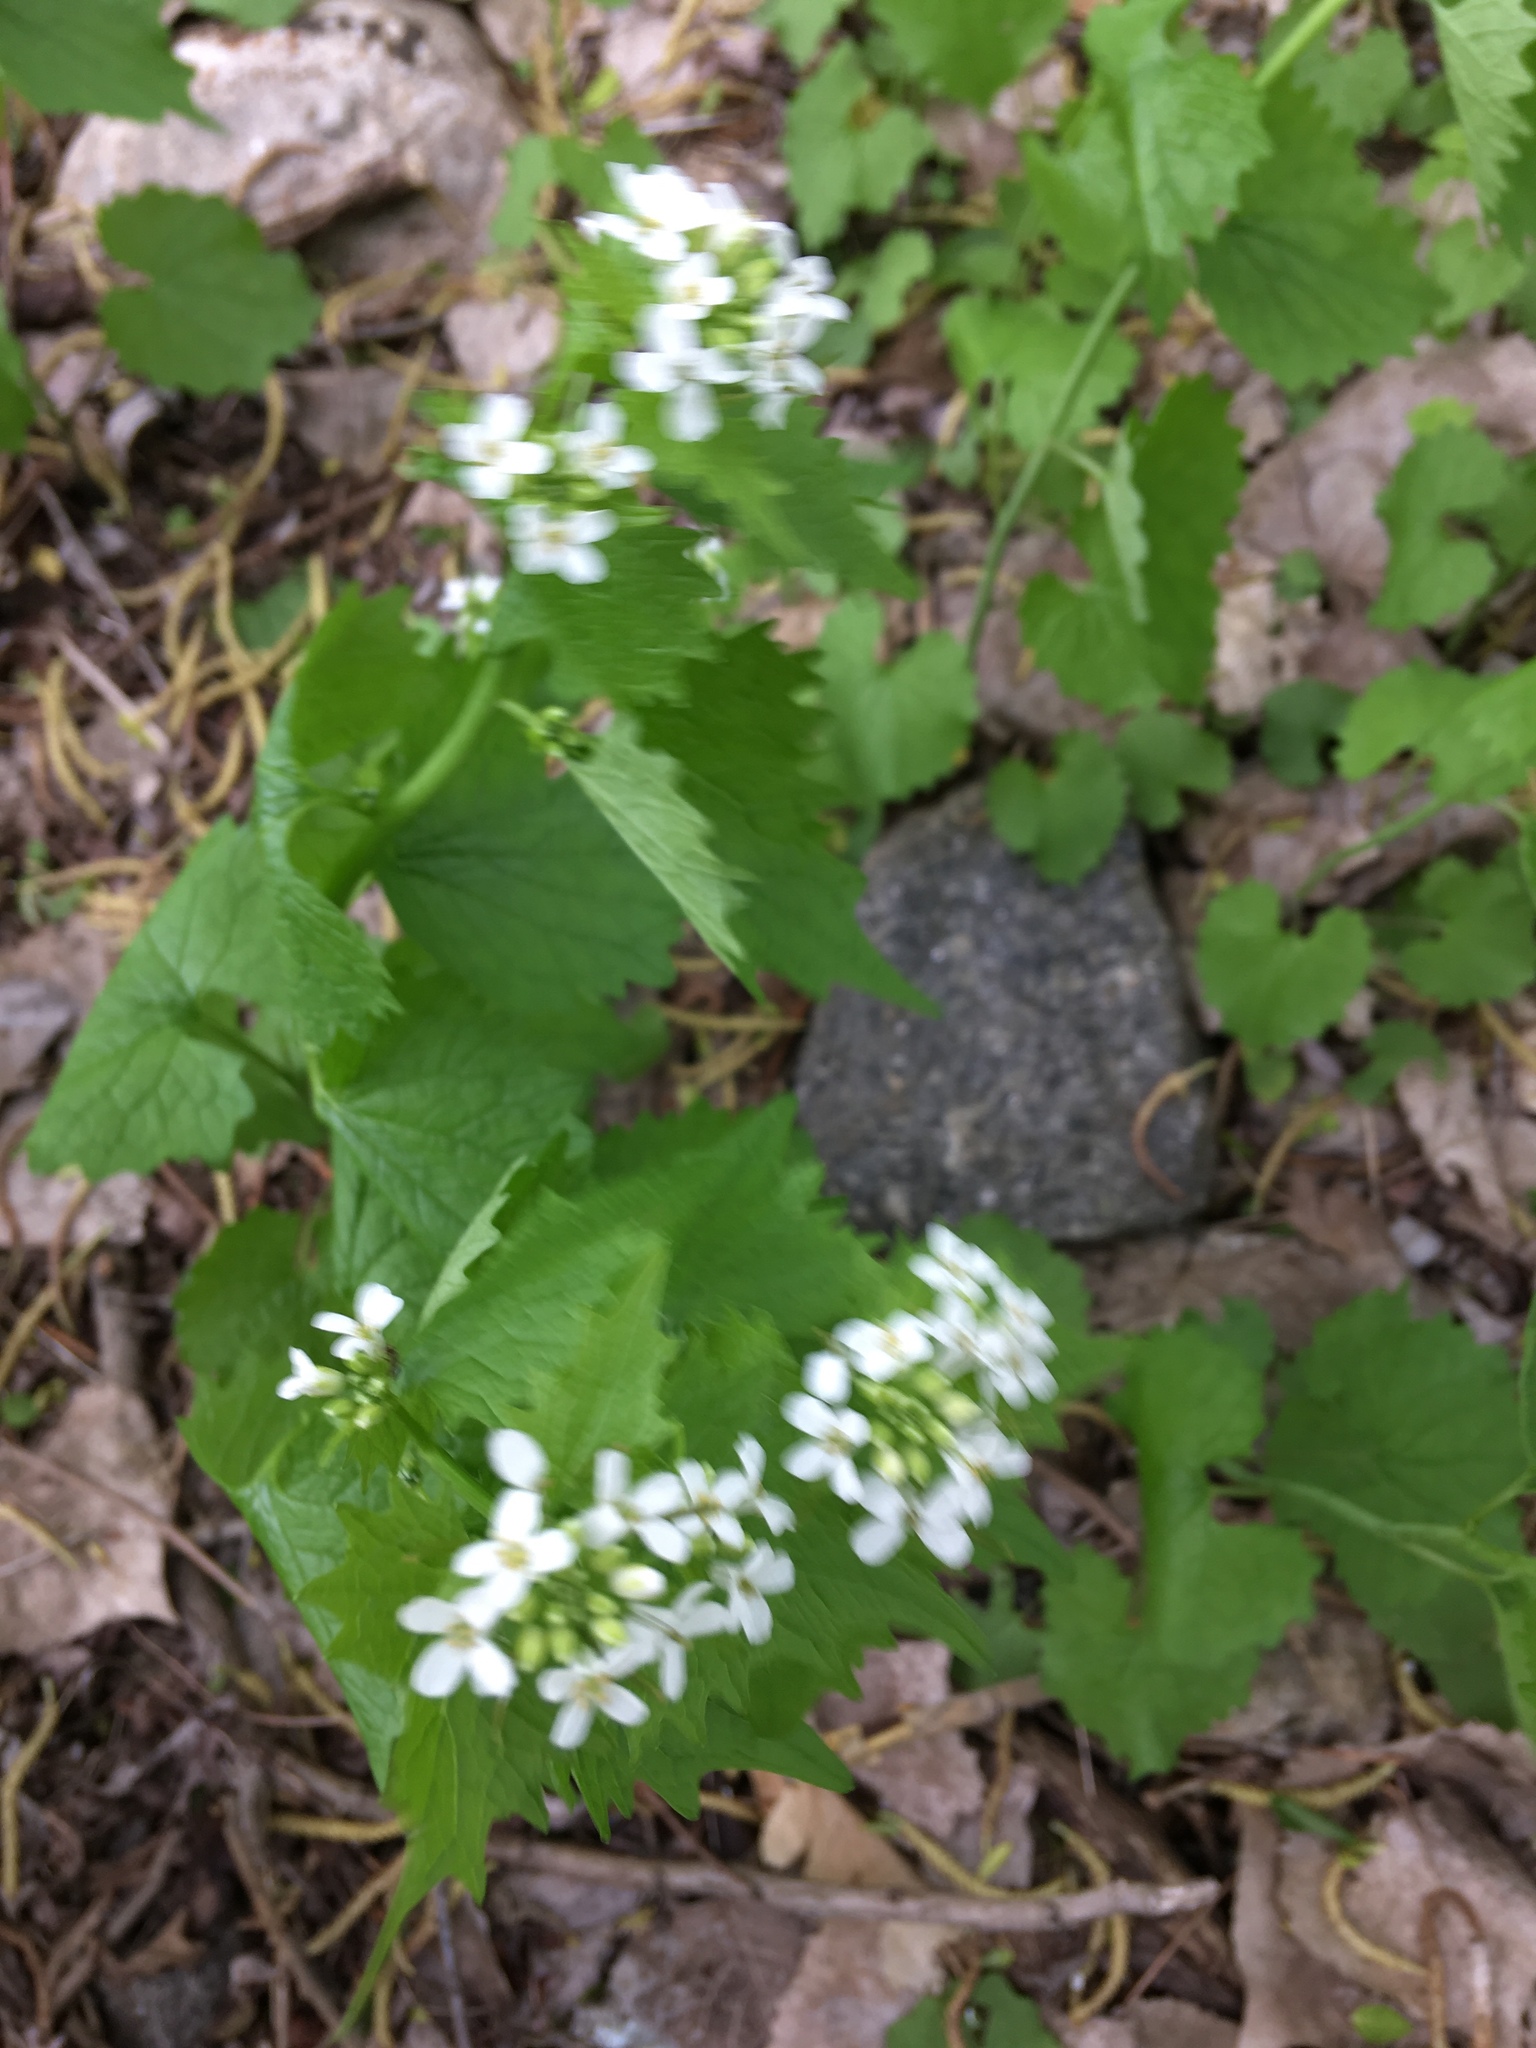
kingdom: Plantae
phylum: Tracheophyta
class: Magnoliopsida
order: Brassicales
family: Brassicaceae
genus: Alliaria
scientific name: Alliaria petiolata
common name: Garlic mustard
